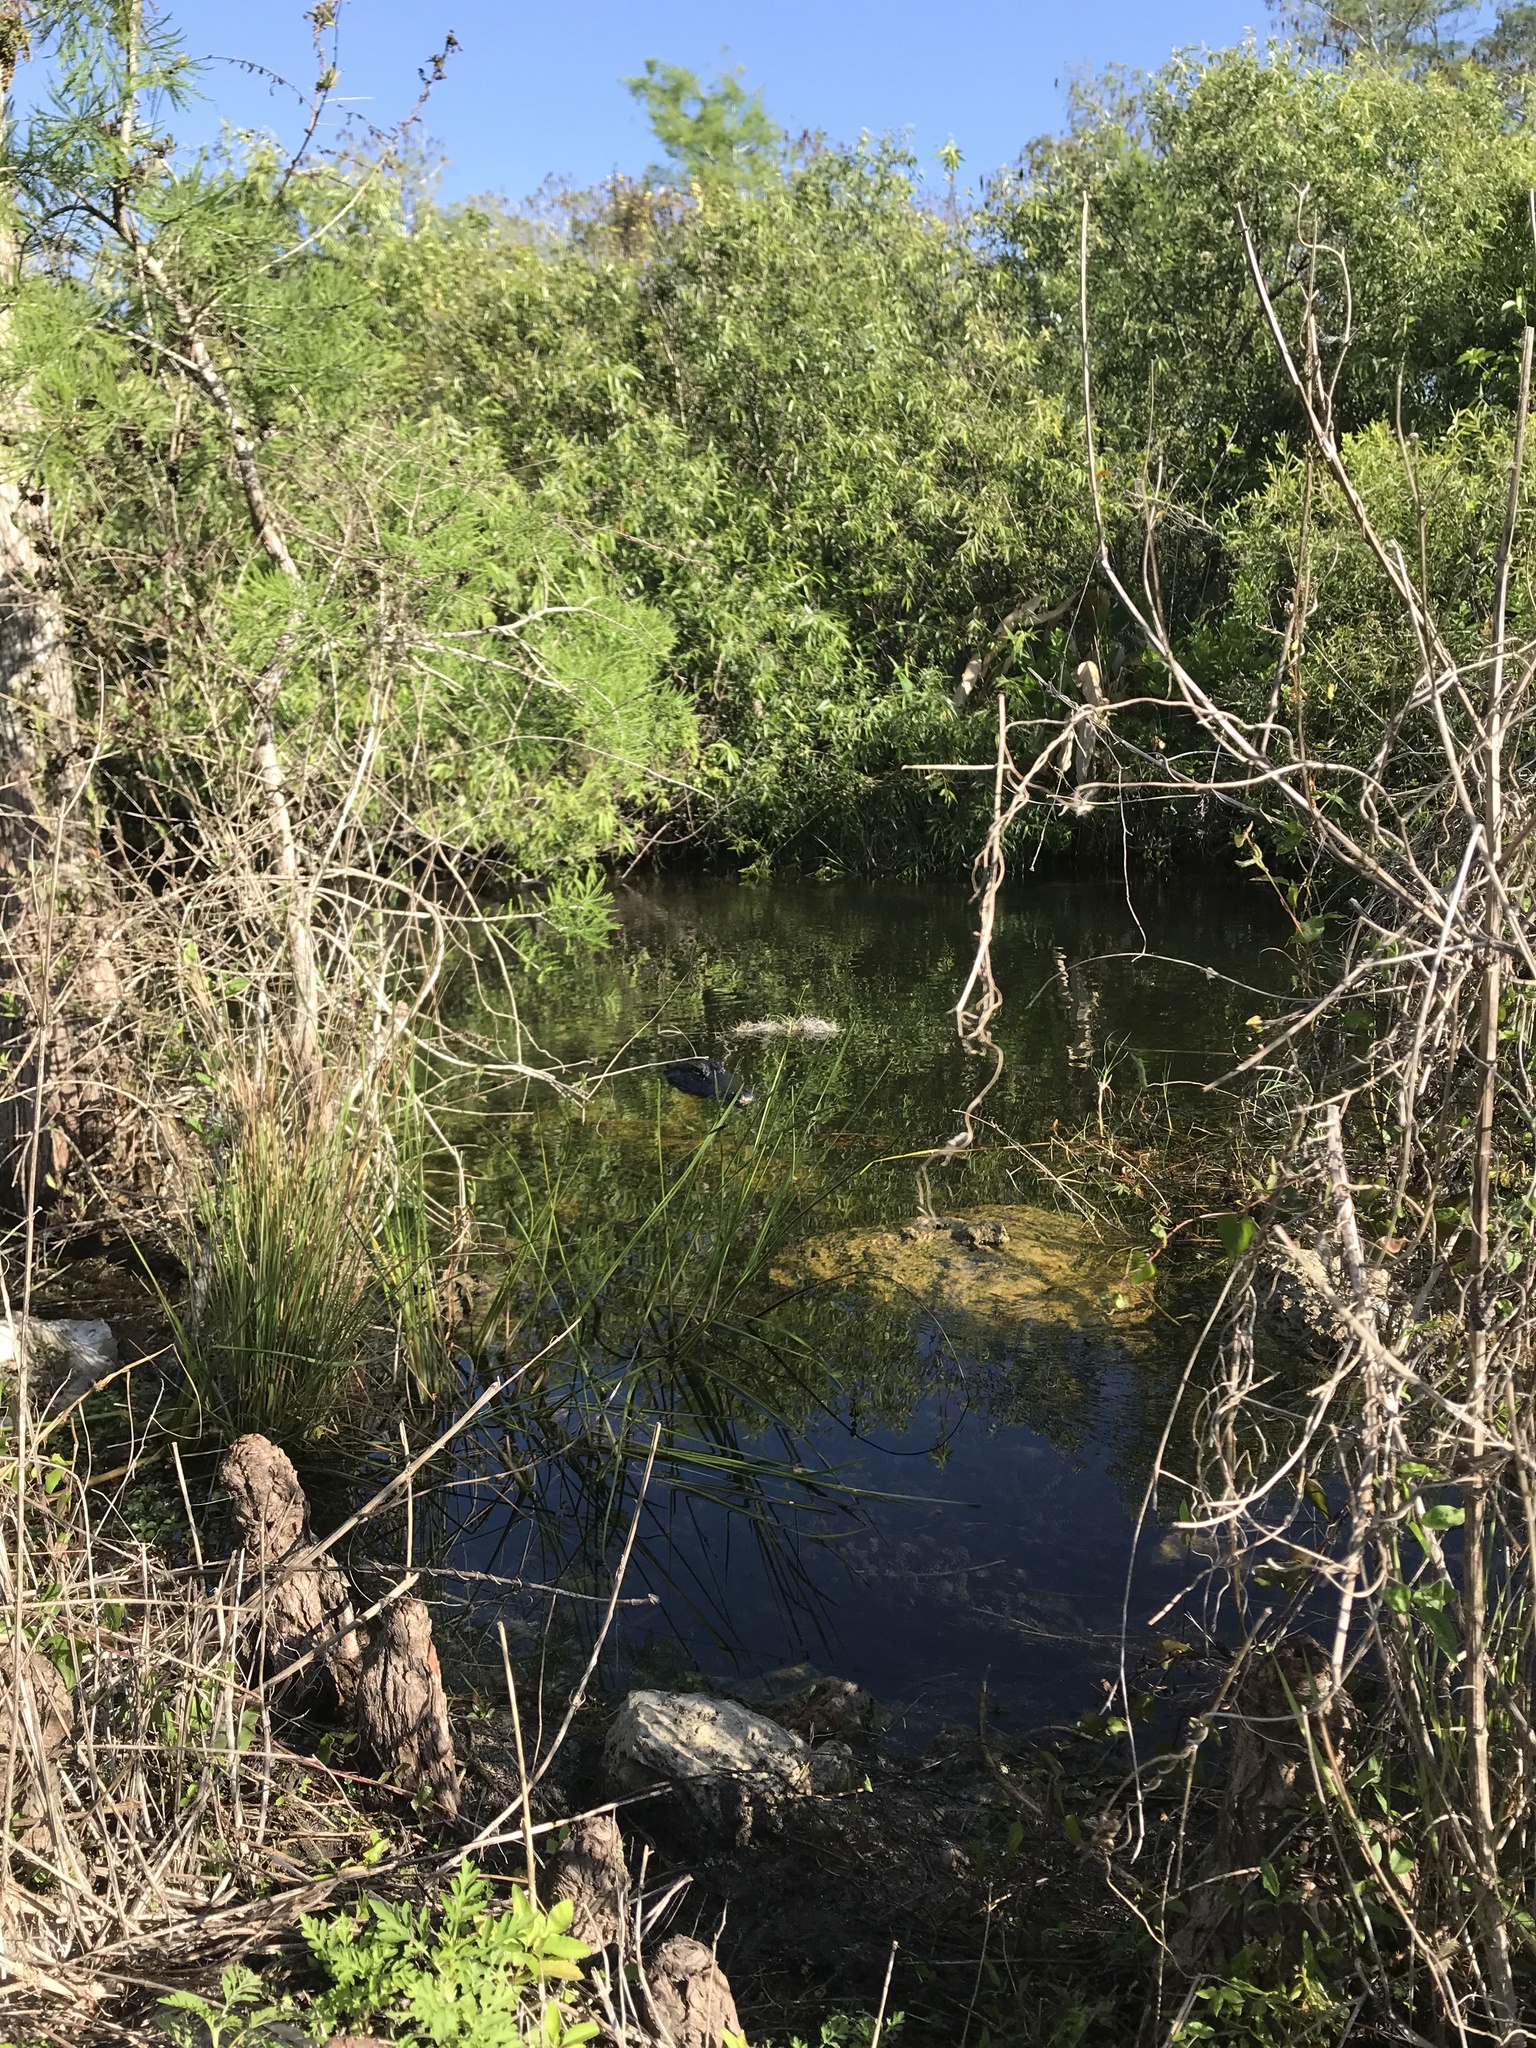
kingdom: Animalia
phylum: Chordata
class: Crocodylia
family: Alligatoridae
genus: Alligator
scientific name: Alligator mississippiensis
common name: American alligator
